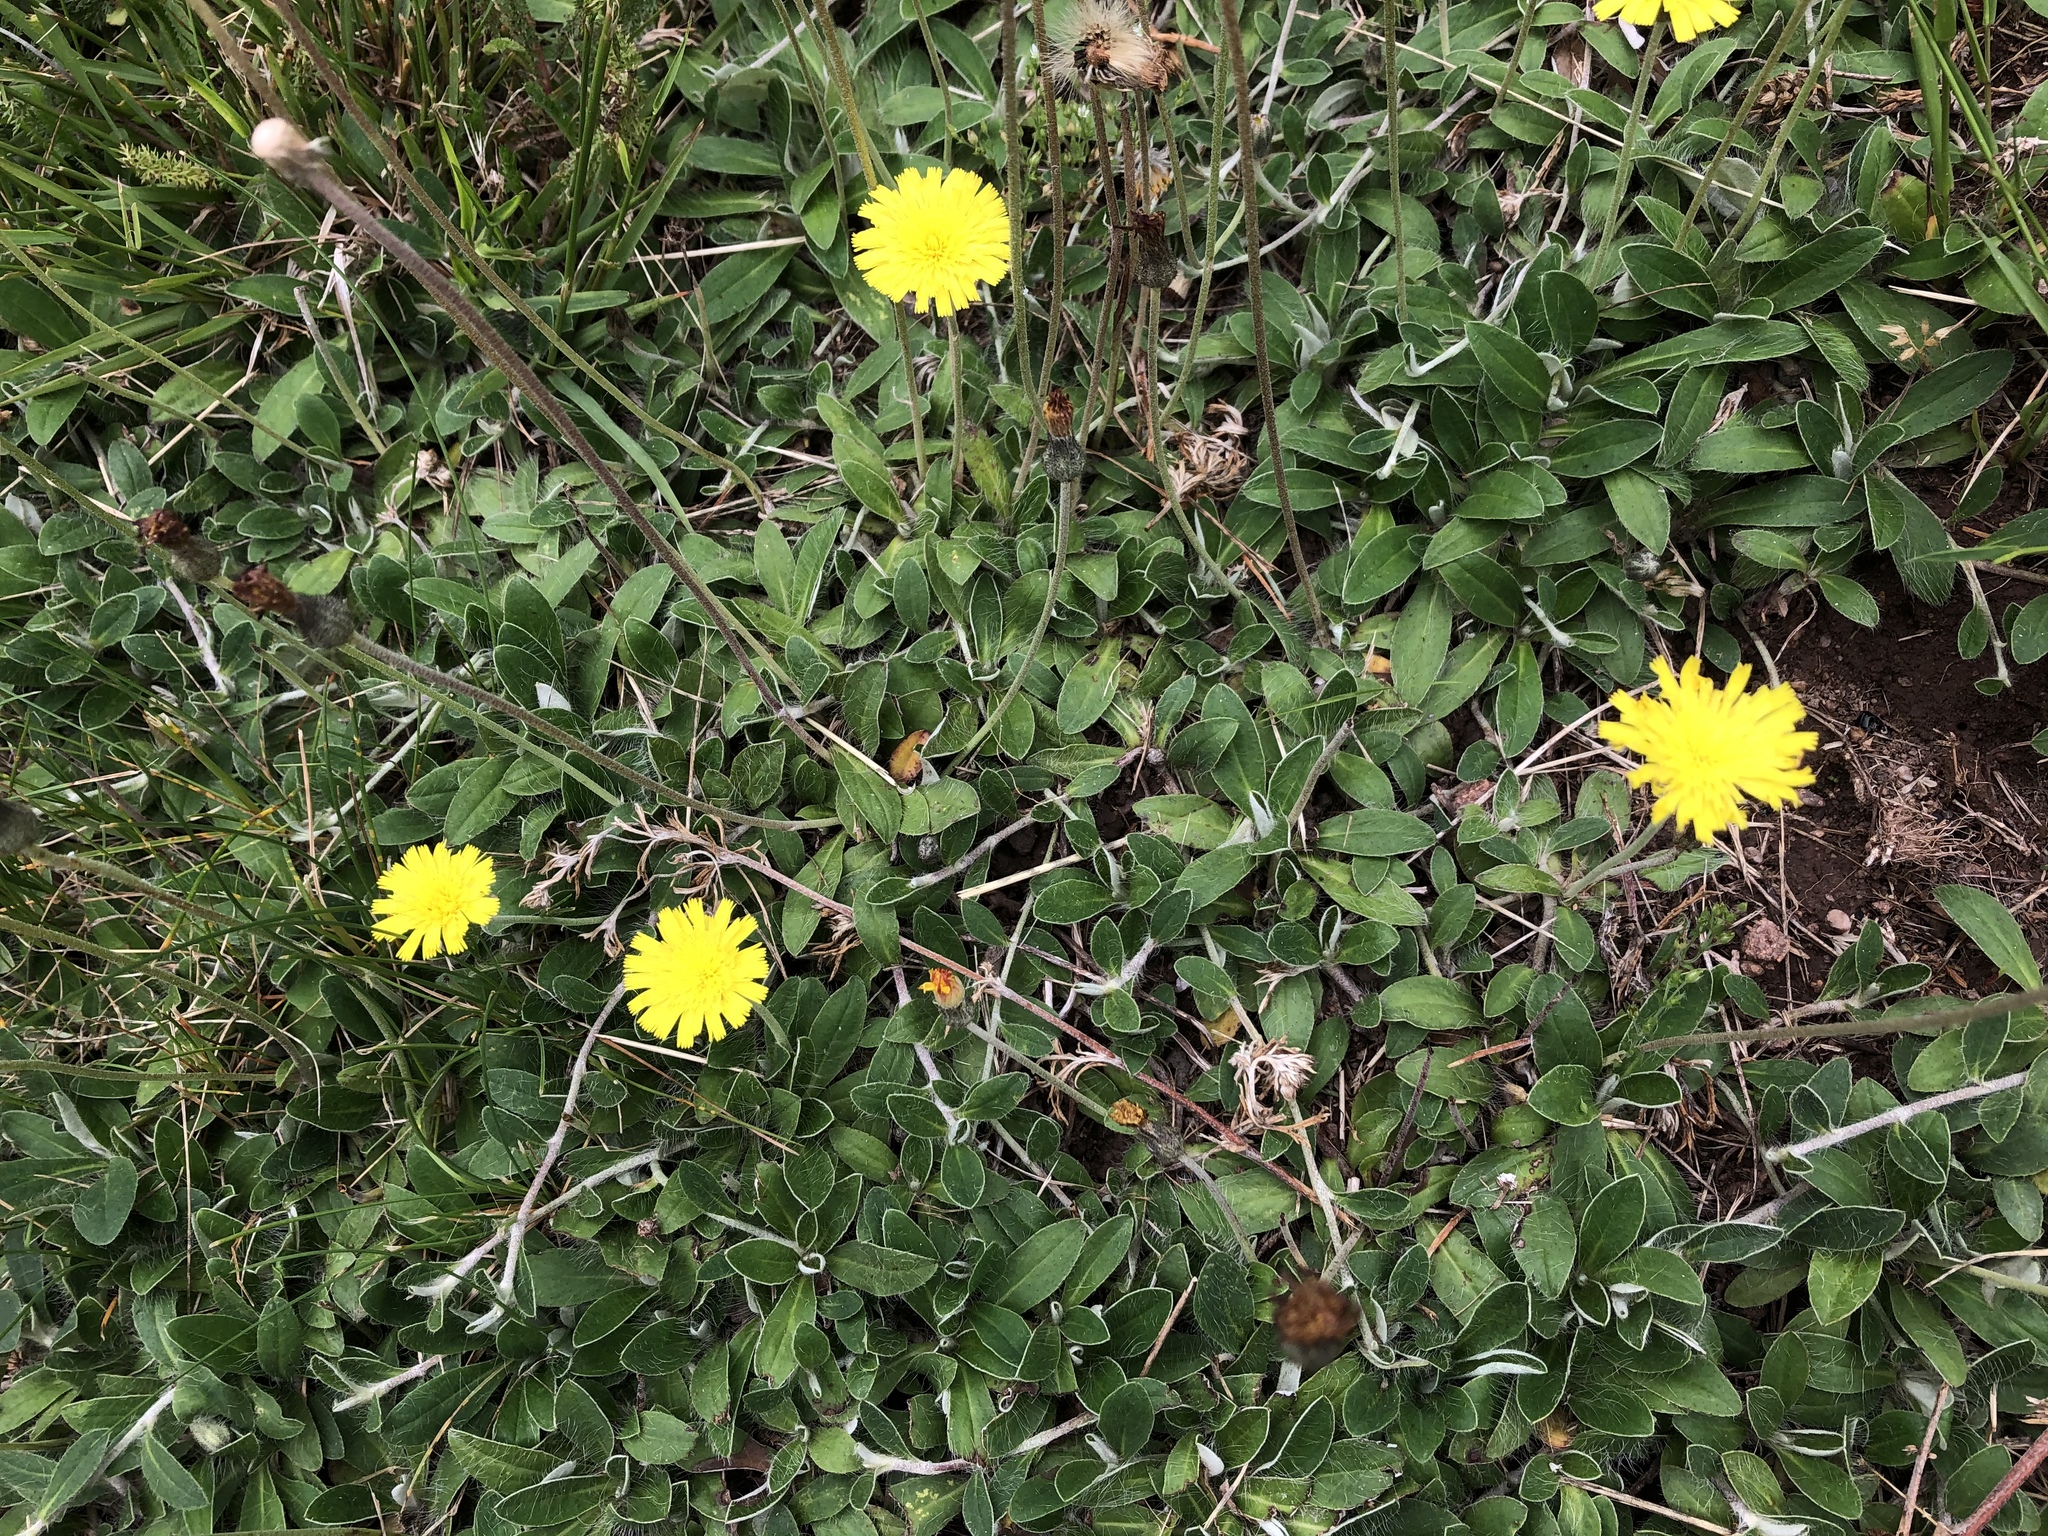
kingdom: Plantae
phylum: Tracheophyta
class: Magnoliopsida
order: Asterales
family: Asteraceae
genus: Pilosella
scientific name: Pilosella officinarum
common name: Mouse-ear hawkweed
